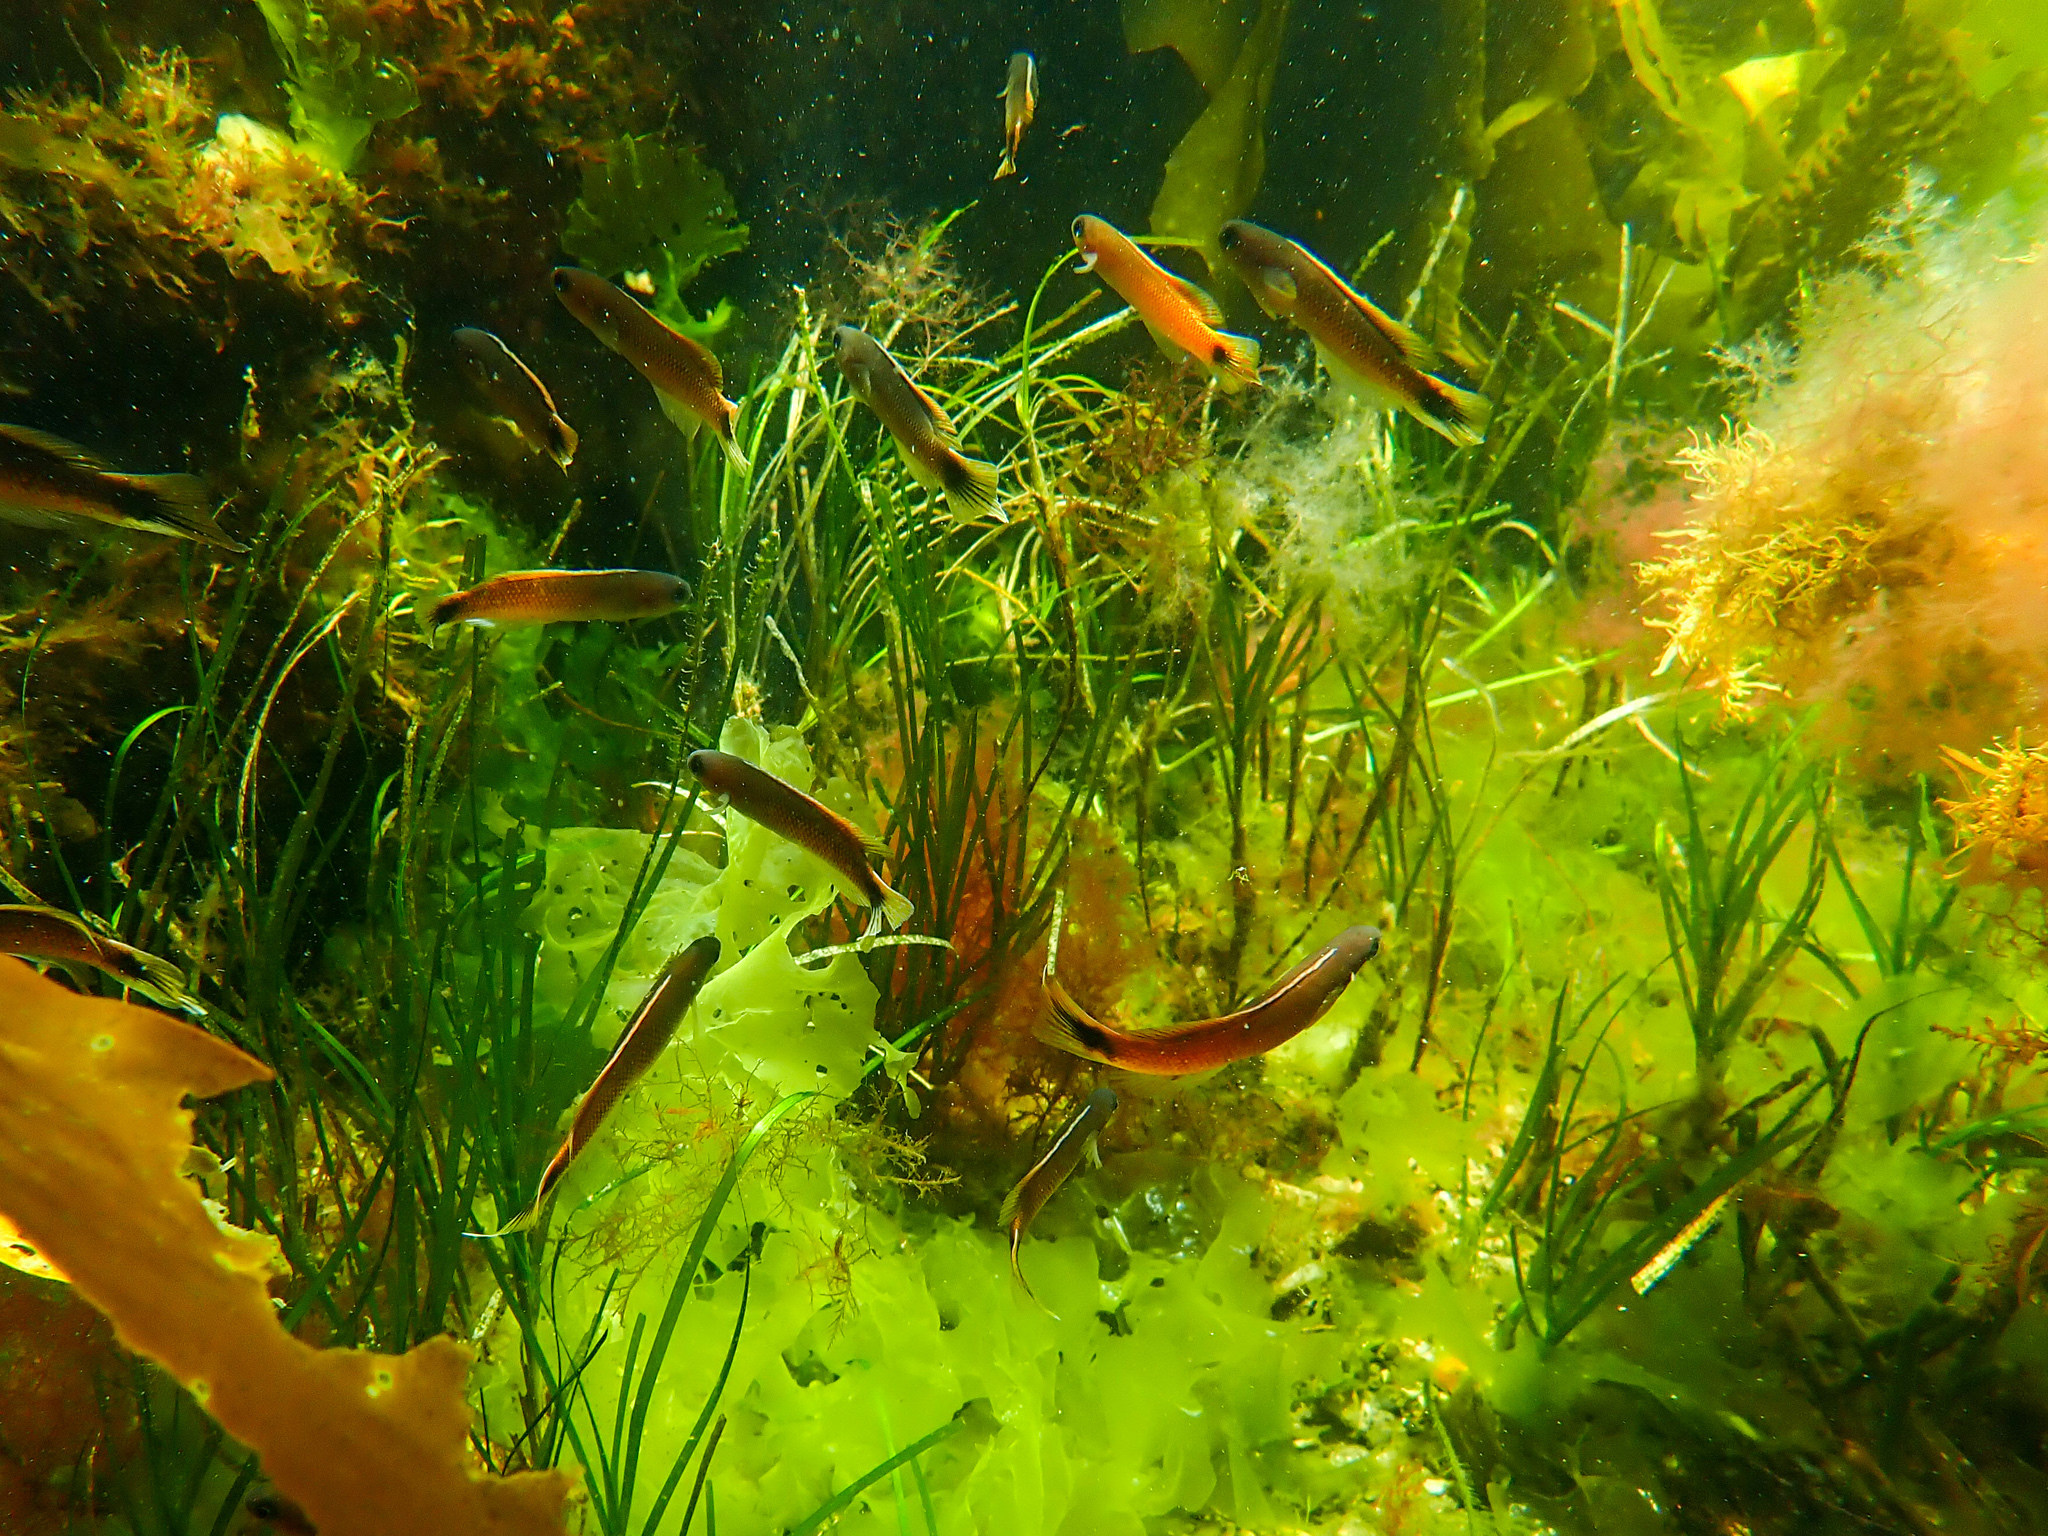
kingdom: Animalia
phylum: Chordata
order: Perciformes
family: Plesiopidae
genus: Trachinops
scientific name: Trachinops caudimaculatus
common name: Blotched-tailed trachinops
